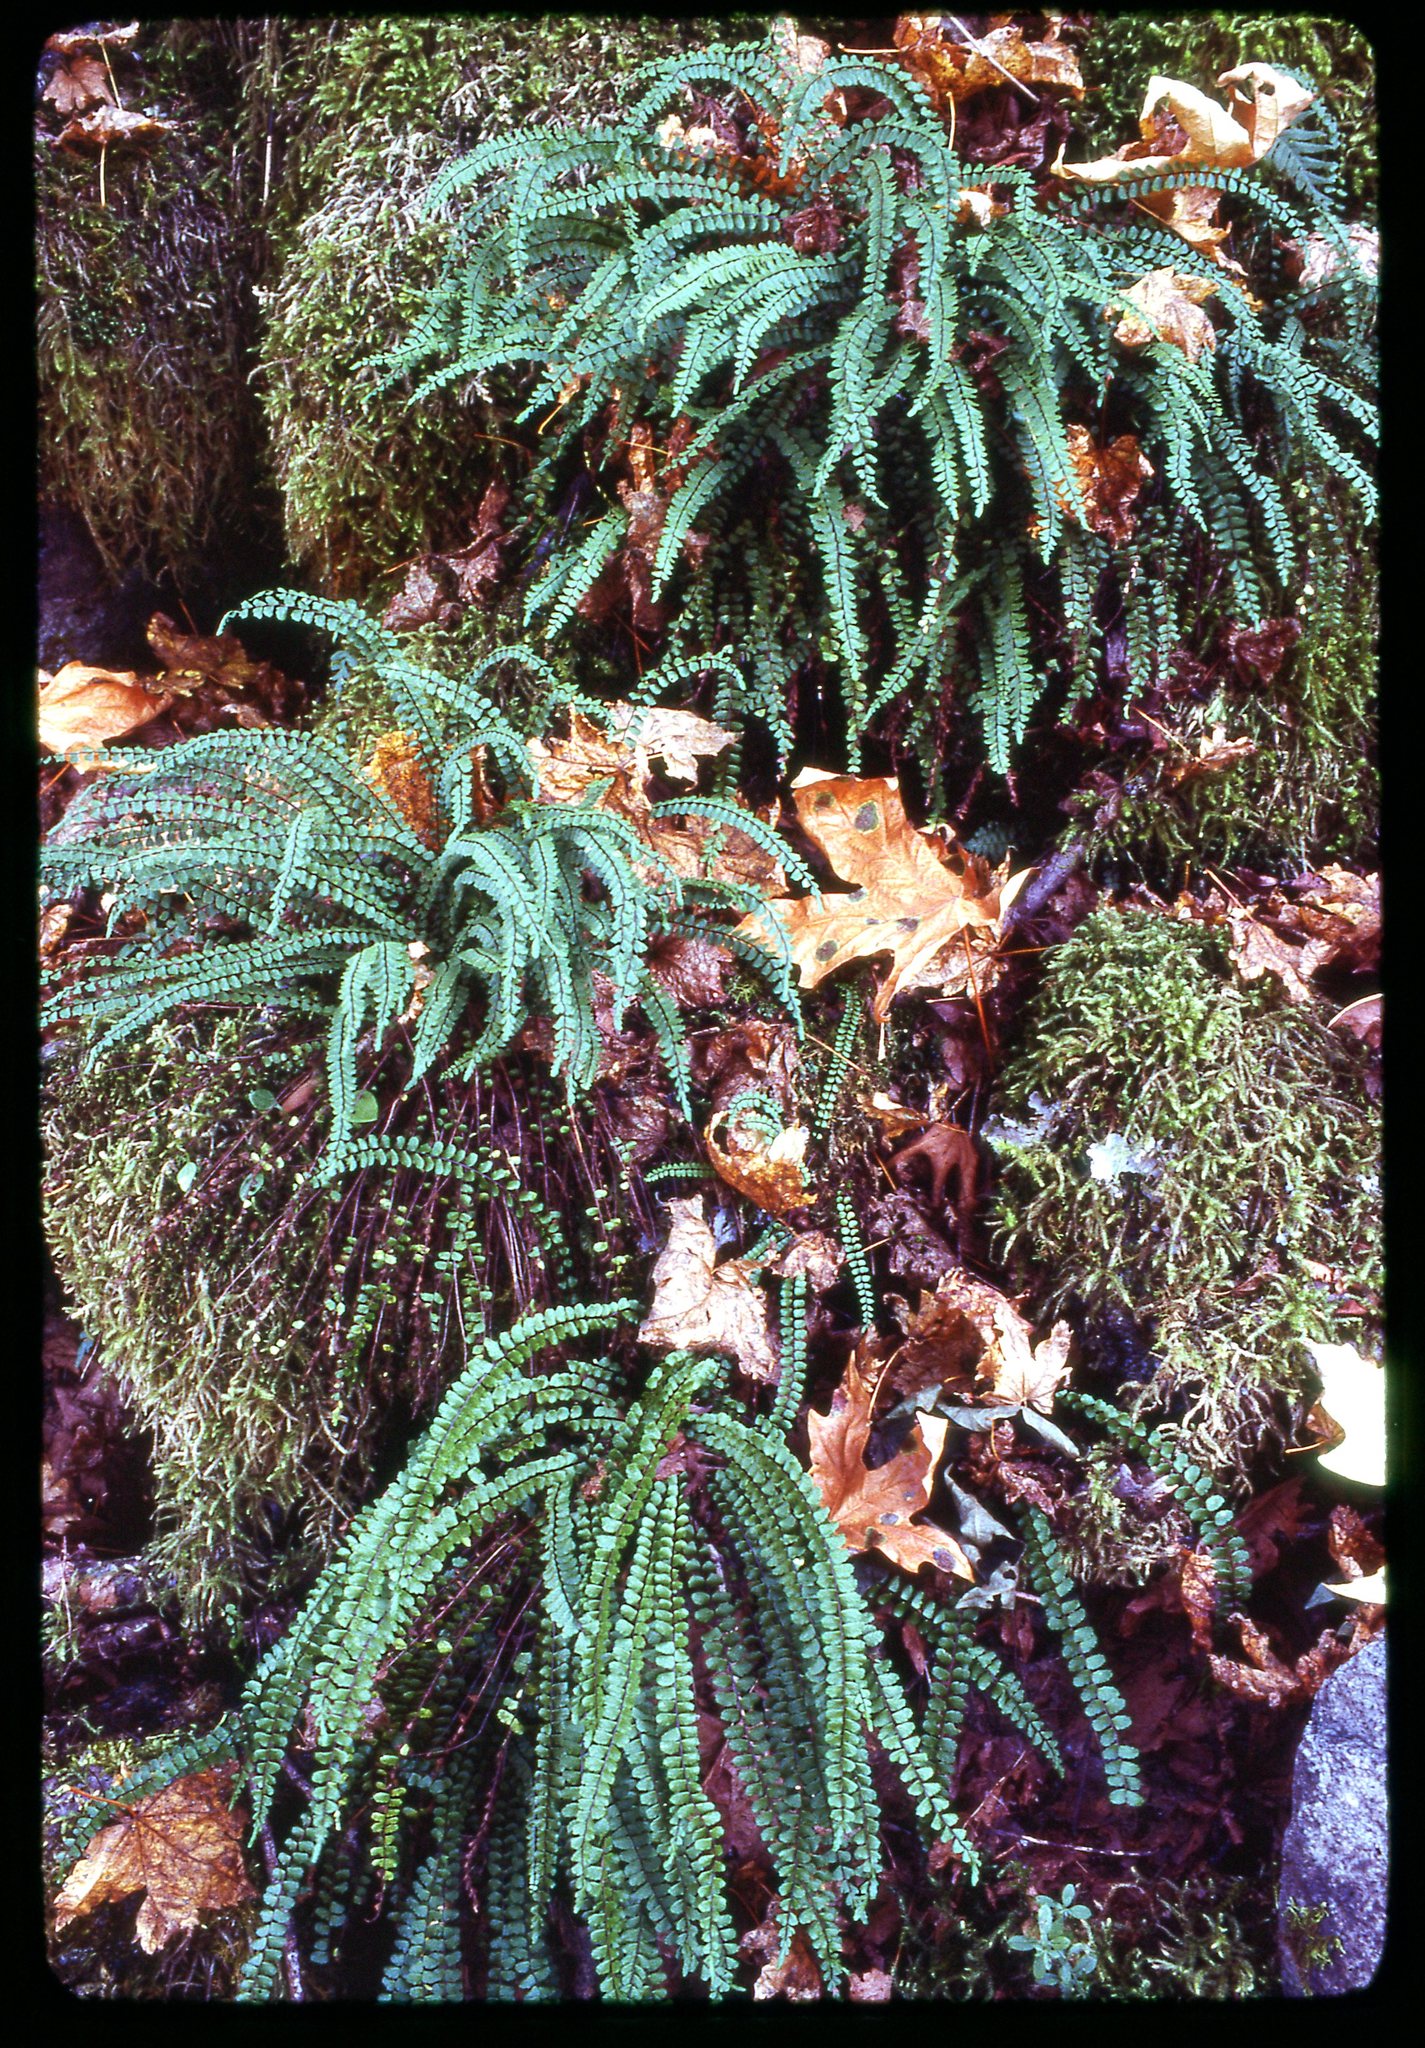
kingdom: Plantae
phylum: Tracheophyta
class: Polypodiopsida
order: Polypodiales
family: Aspleniaceae
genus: Asplenium
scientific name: Asplenium trichomanes
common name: Maidenhair spleenwort
